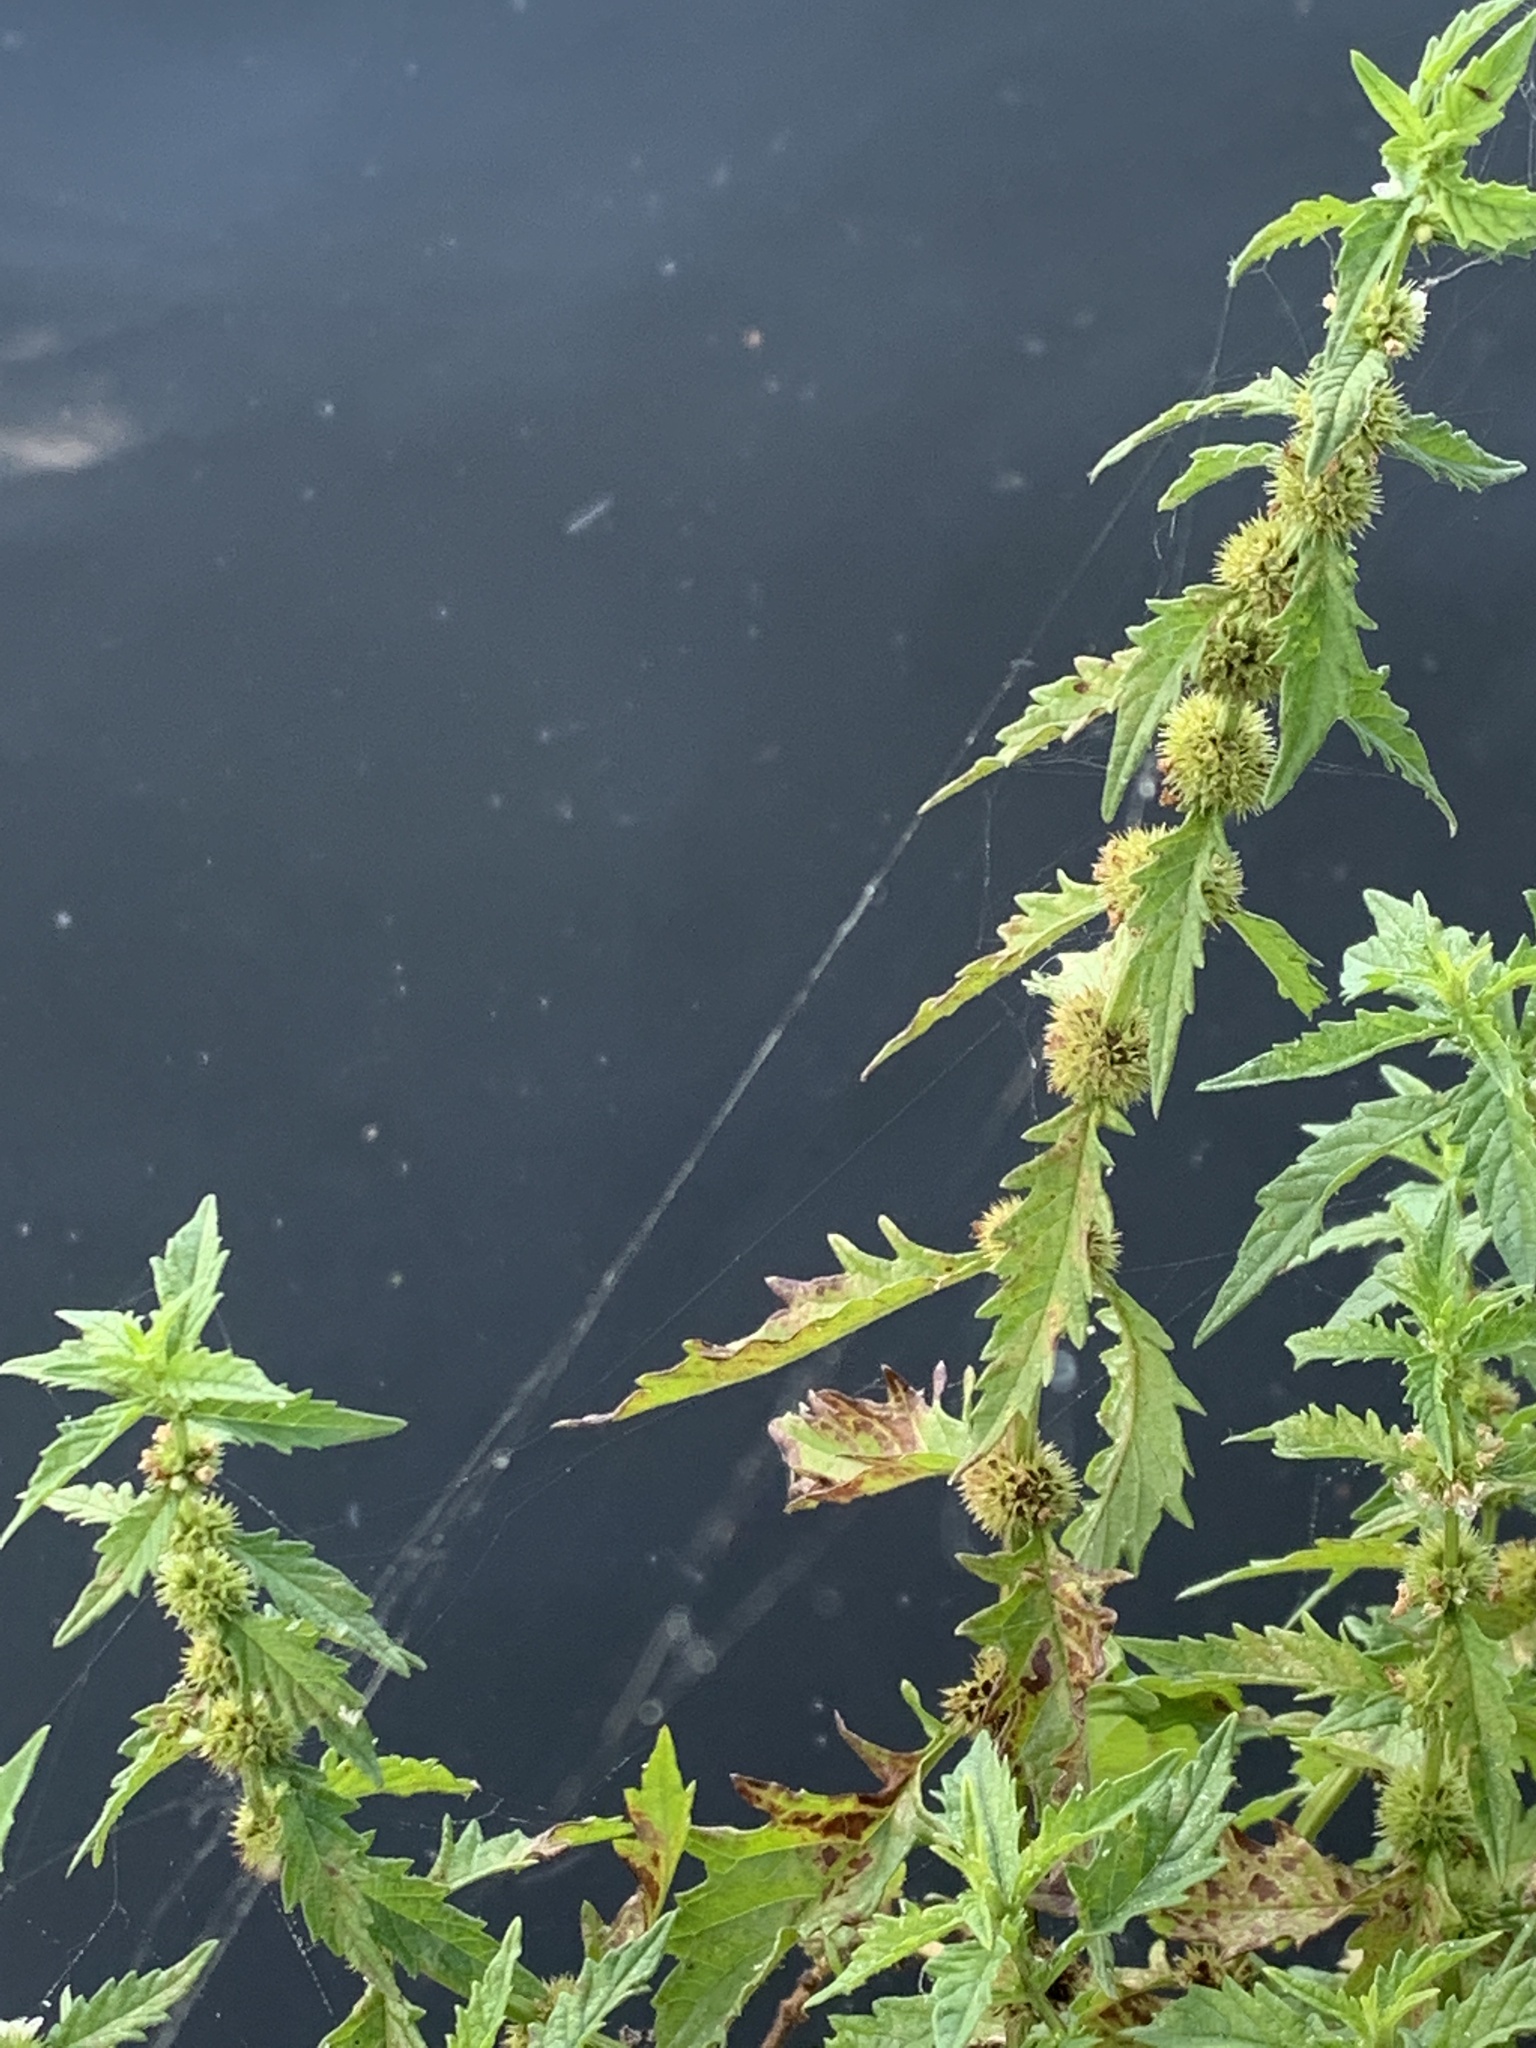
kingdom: Plantae
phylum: Tracheophyta
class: Magnoliopsida
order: Lamiales
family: Lamiaceae
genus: Lycopus
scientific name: Lycopus europaeus
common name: European bugleweed
